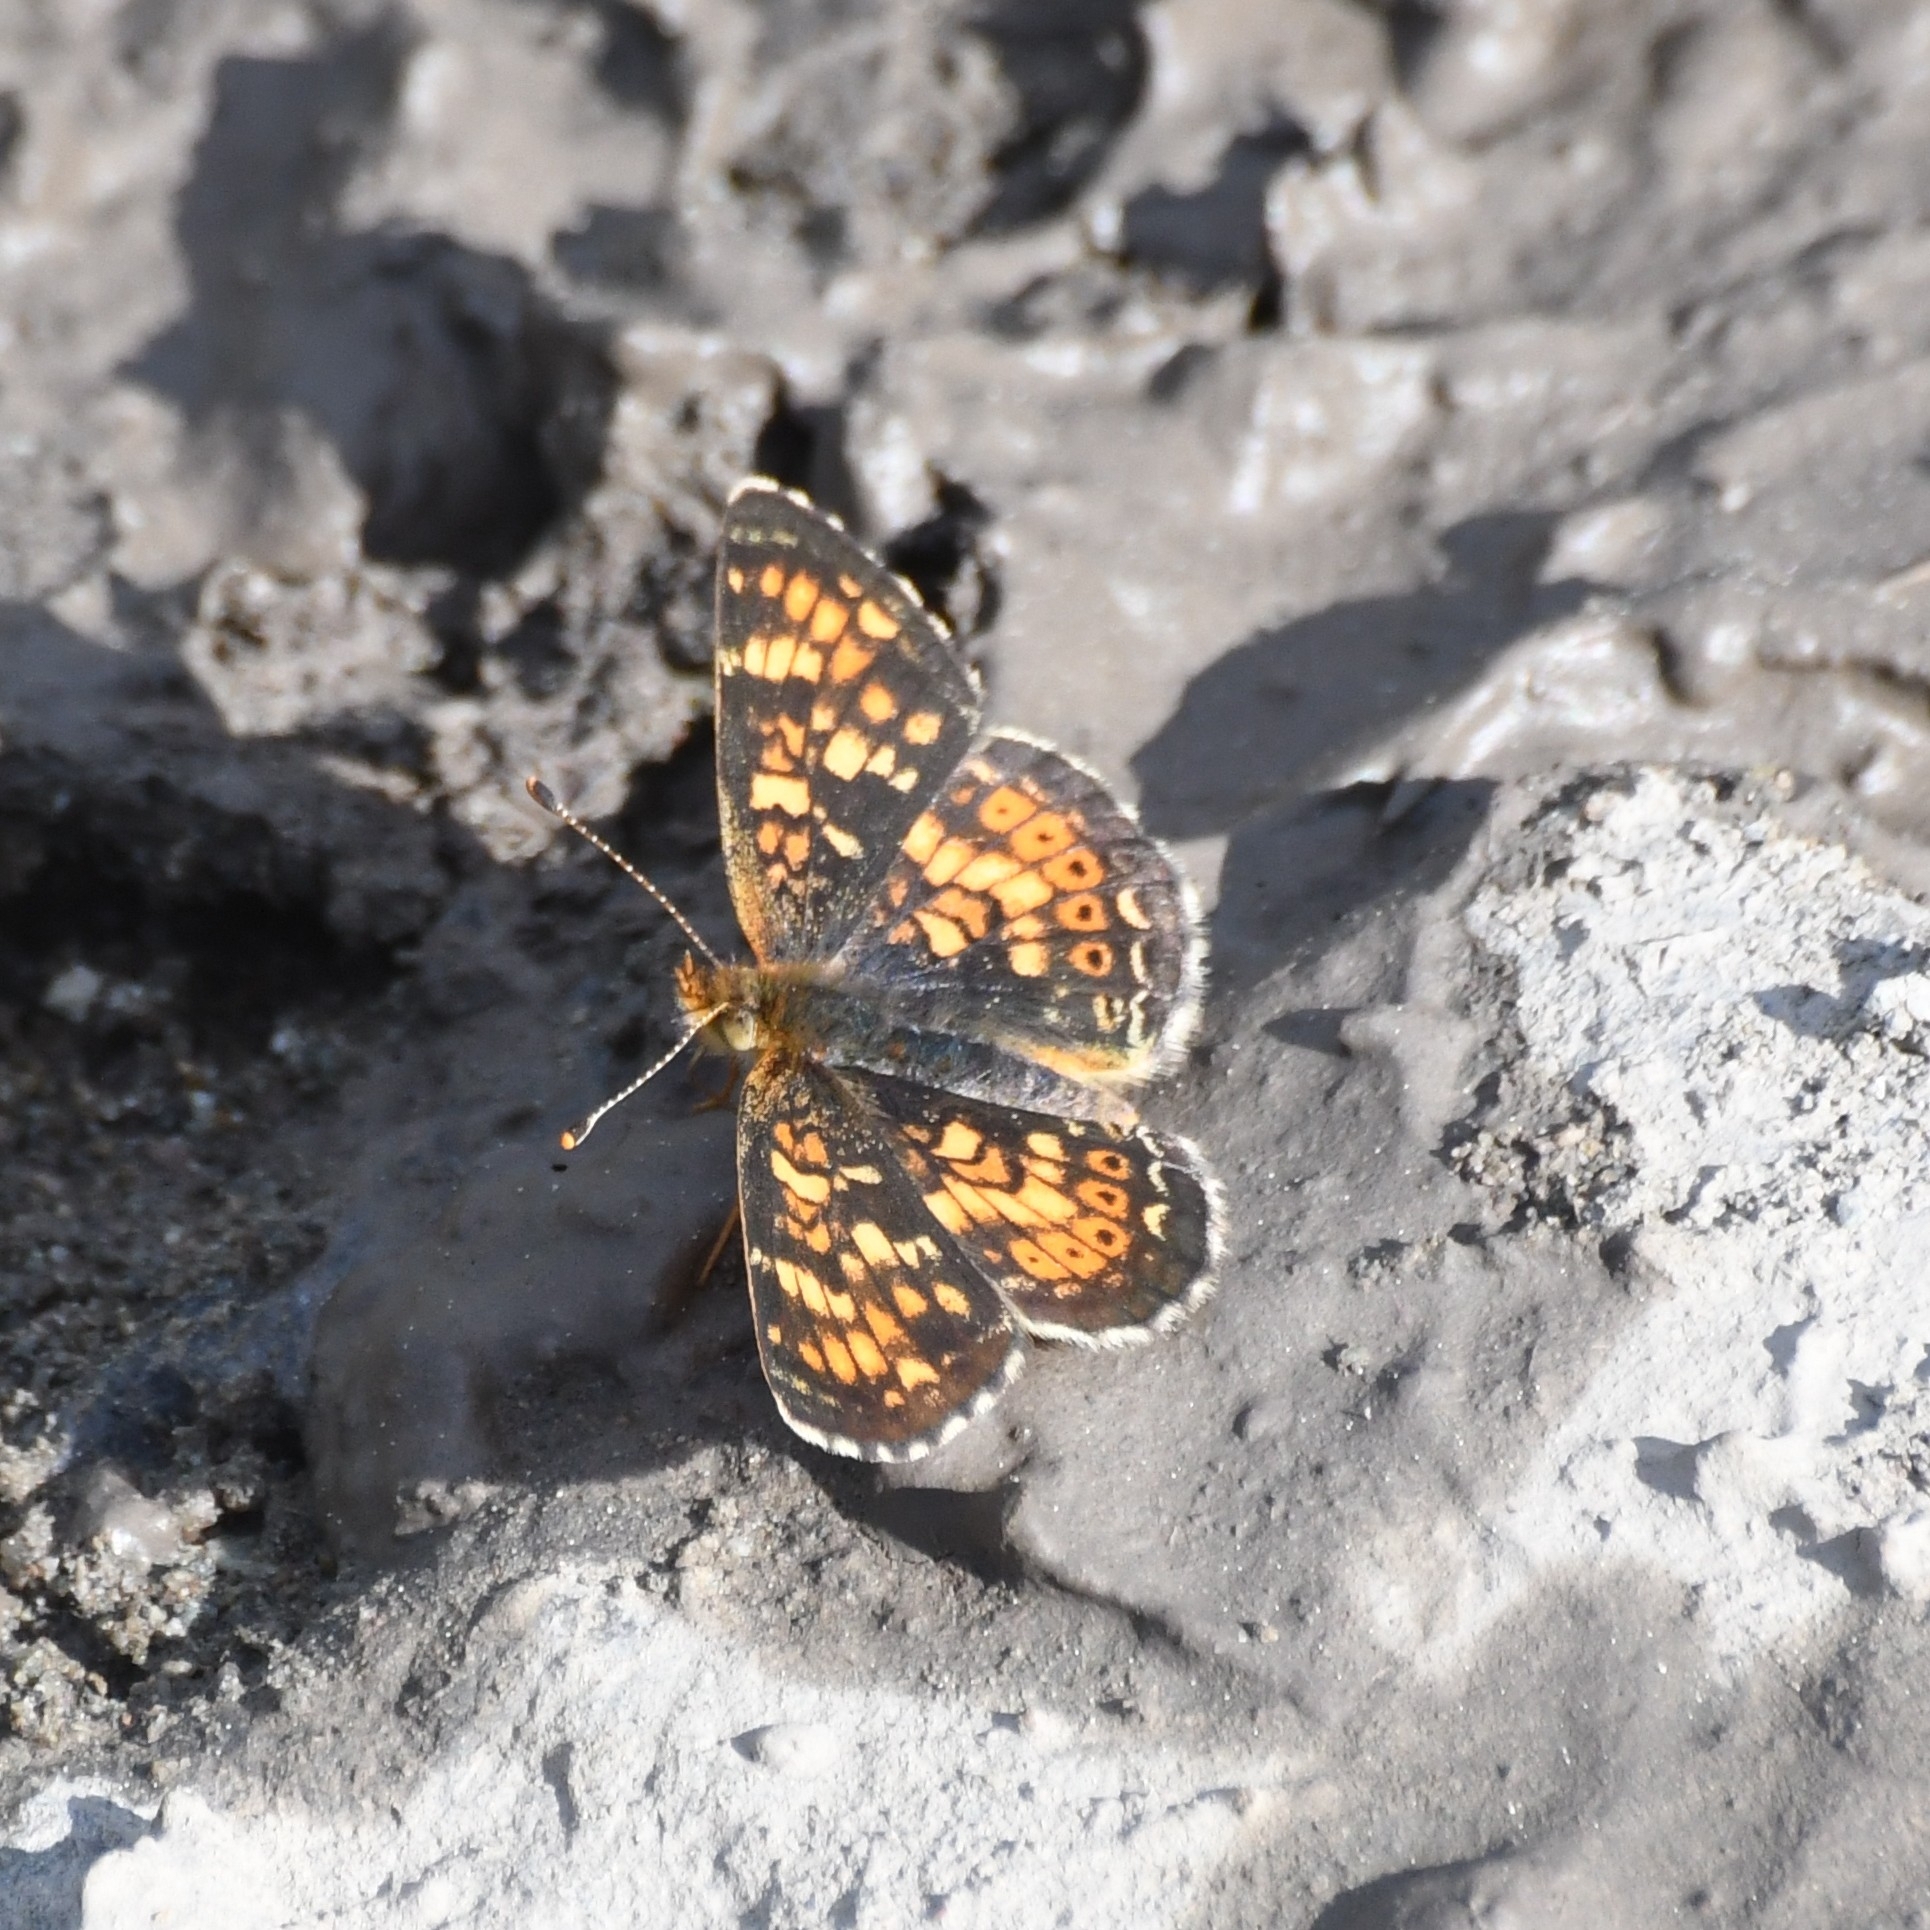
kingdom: Animalia
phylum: Arthropoda
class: Insecta
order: Lepidoptera
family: Nymphalidae
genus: Phyciodes
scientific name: Phyciodes tharos
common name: Pearl crescent
